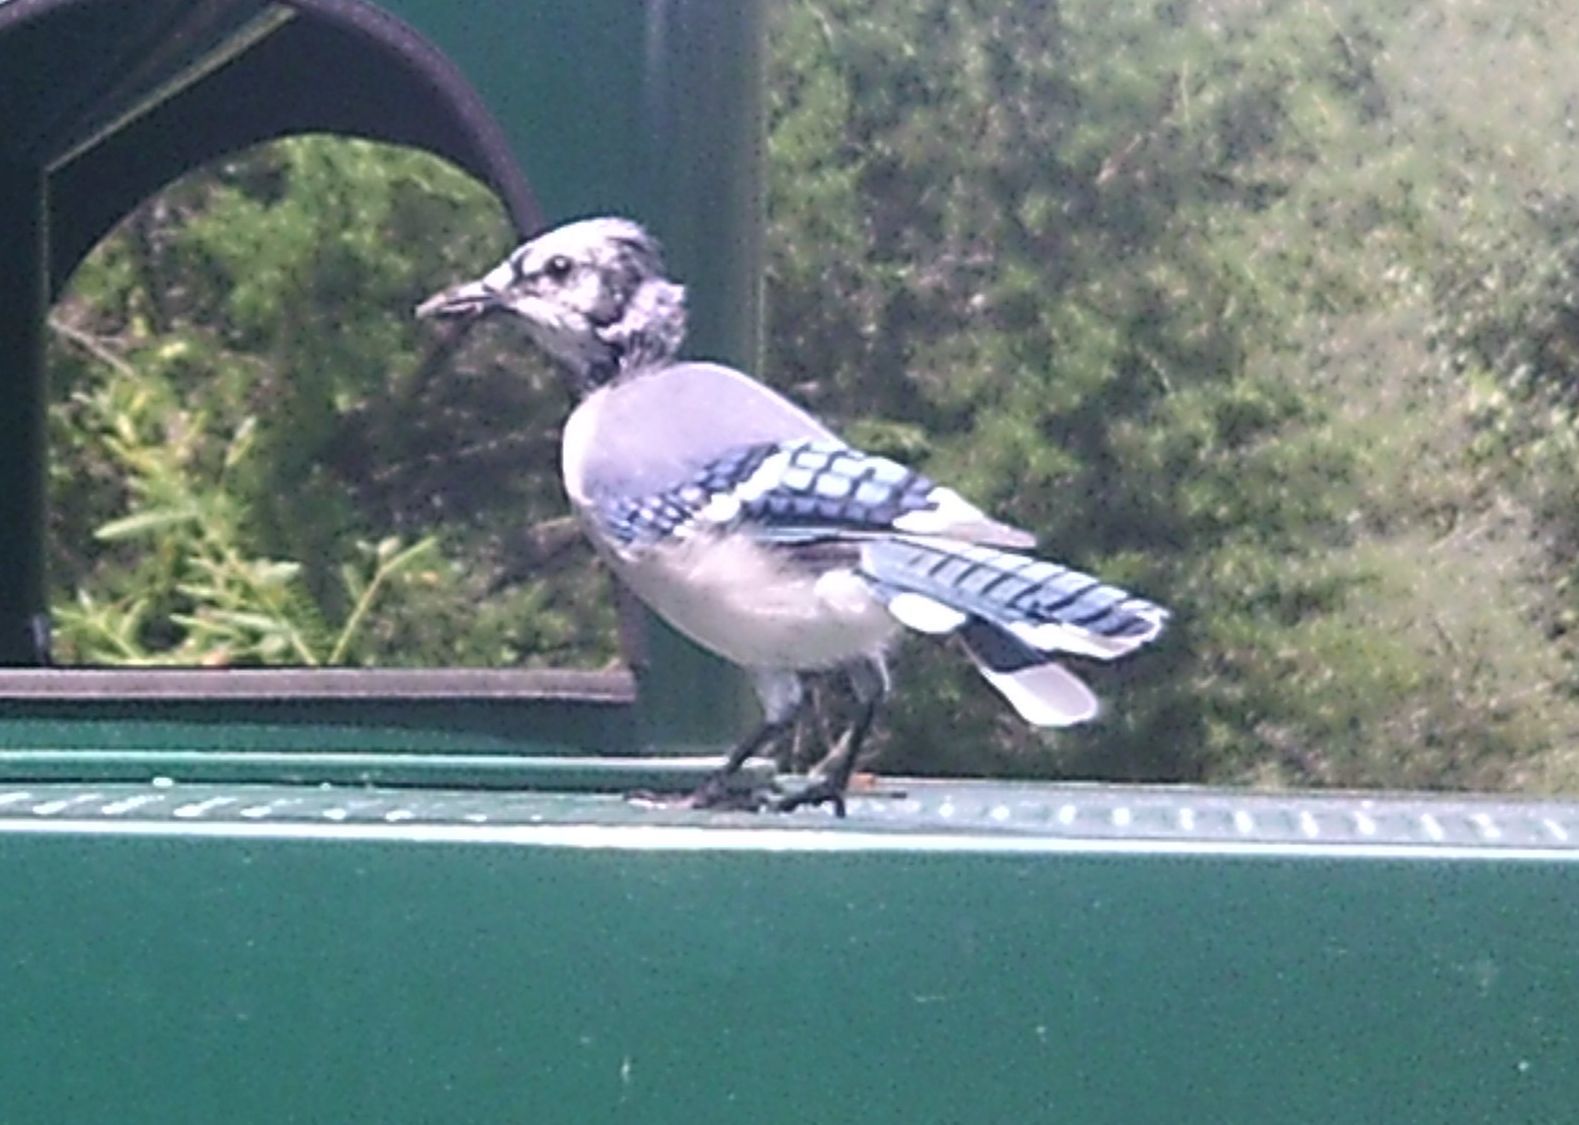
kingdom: Animalia
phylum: Chordata
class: Aves
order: Passeriformes
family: Corvidae
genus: Cyanocitta
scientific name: Cyanocitta cristata
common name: Blue jay
